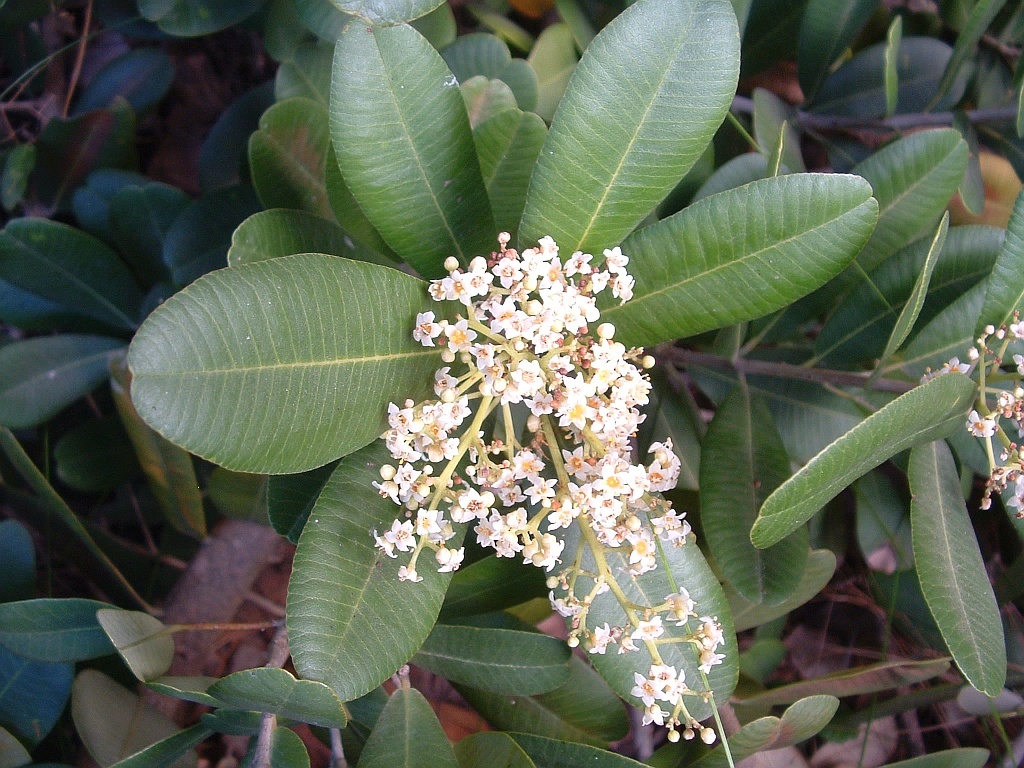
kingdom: Plantae
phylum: Tracheophyta
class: Magnoliopsida
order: Sapindales
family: Anacardiaceae
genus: Heeria
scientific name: Heeria argentea
